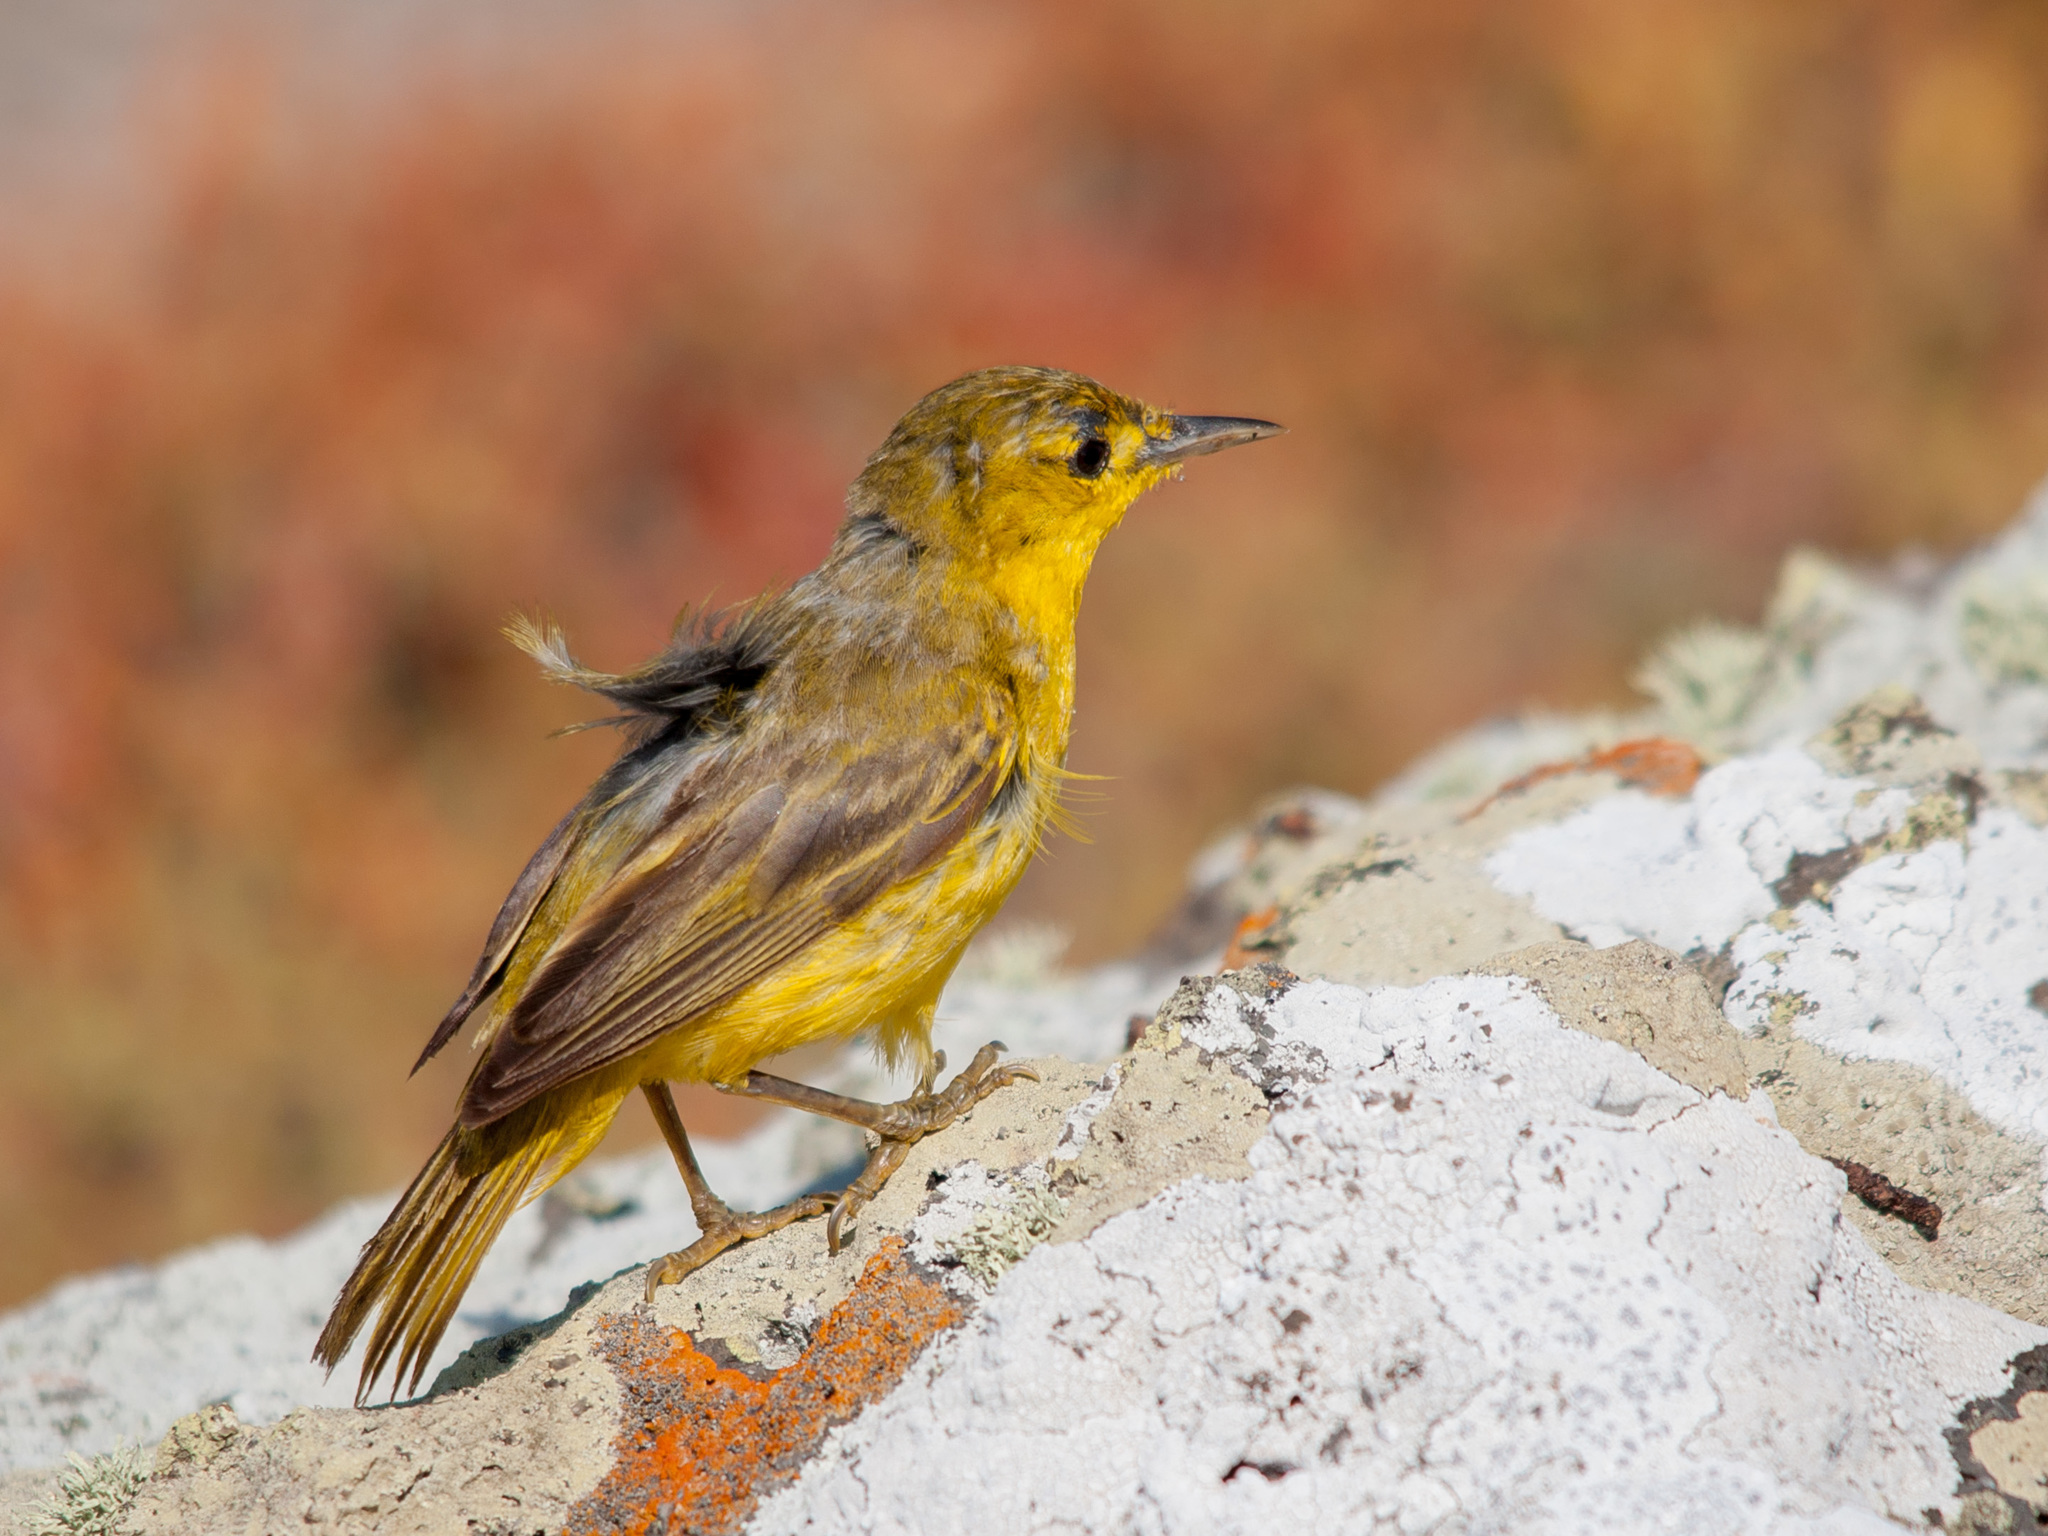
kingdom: Animalia
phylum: Chordata
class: Aves
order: Passeriformes
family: Parulidae
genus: Setophaga
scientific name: Setophaga petechia
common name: Yellow warbler
